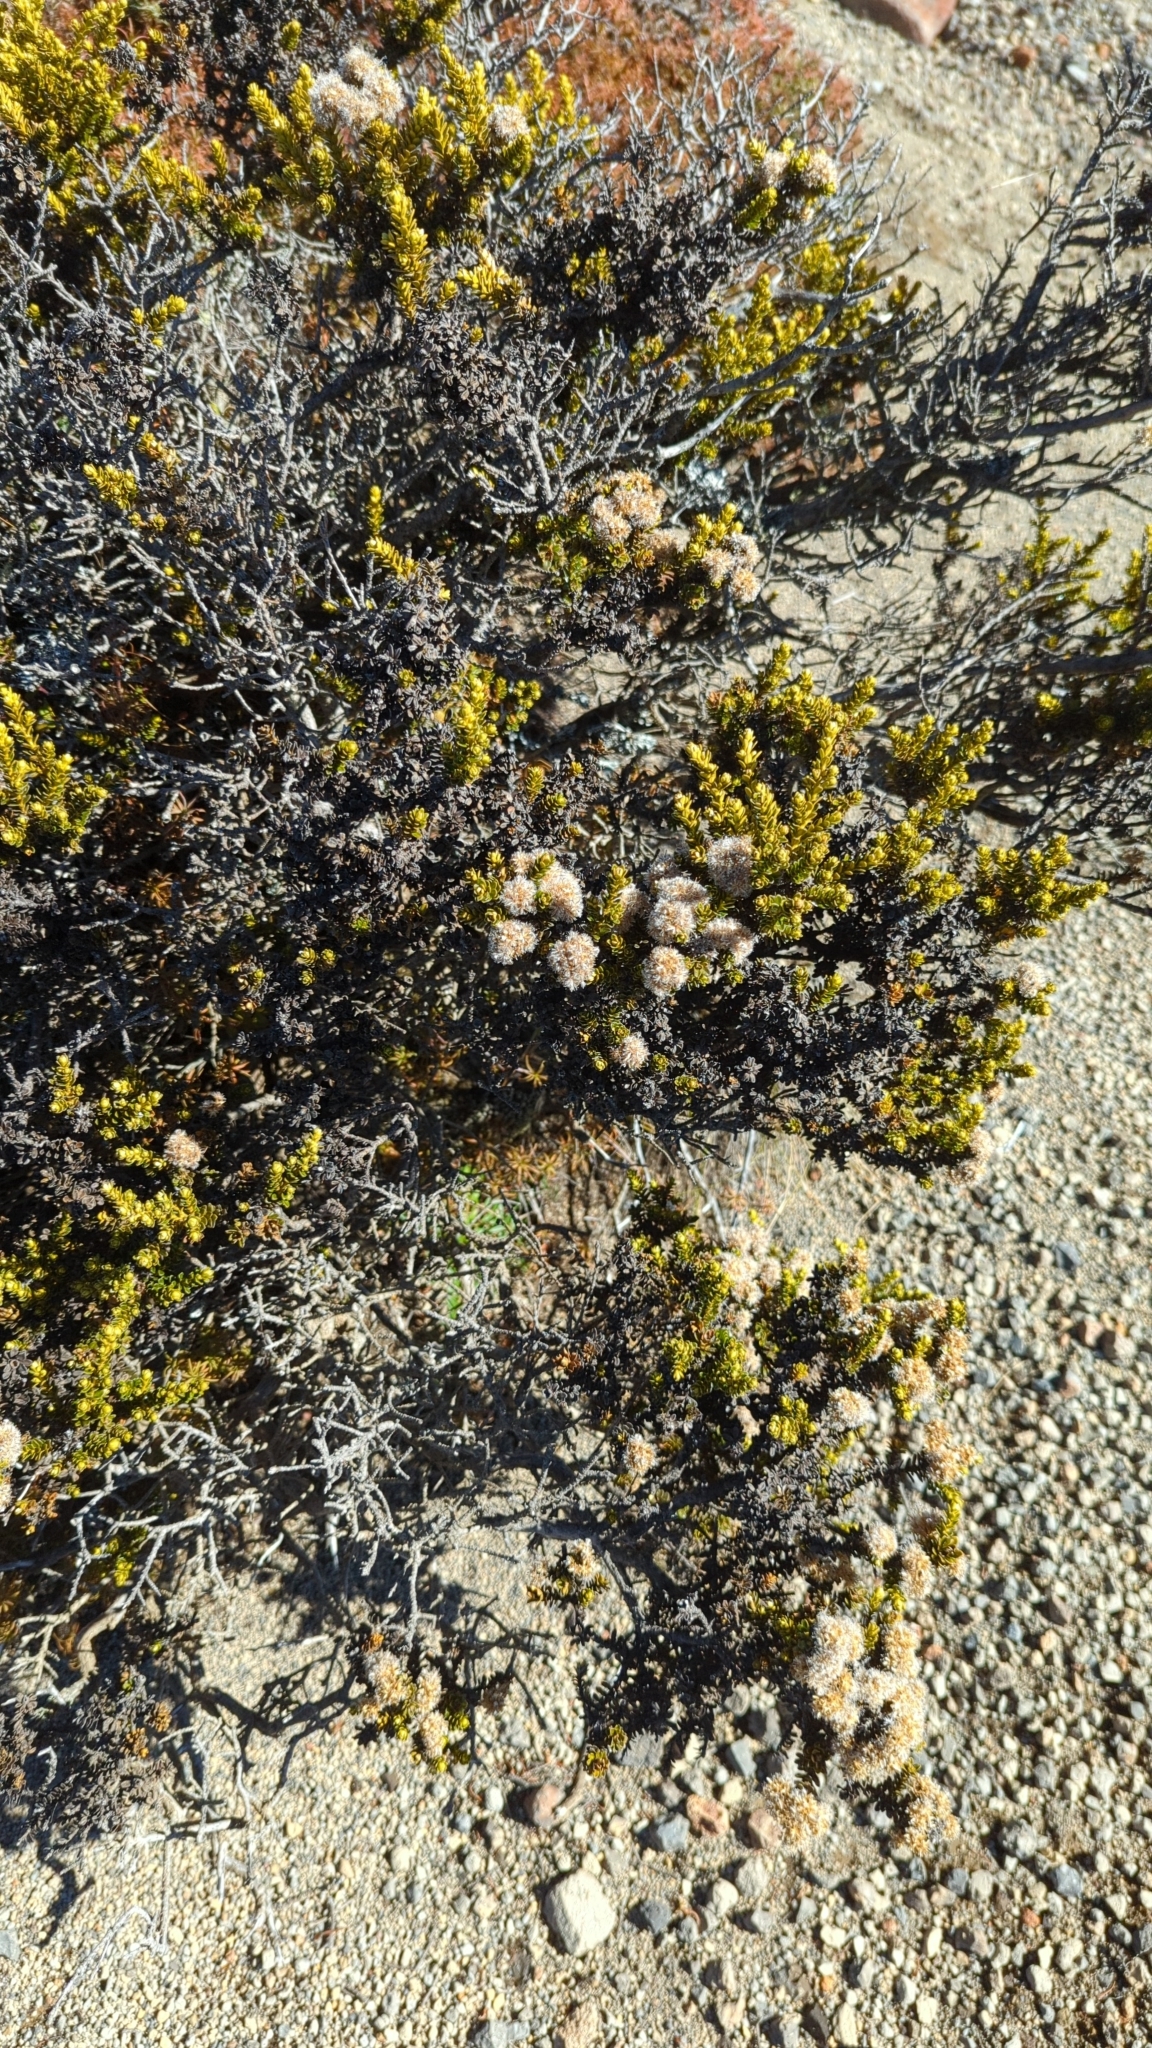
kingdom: Plantae
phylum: Tracheophyta
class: Magnoliopsida
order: Asterales
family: Asteraceae
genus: Ozothamnus
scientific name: Ozothamnus leptophyllus
